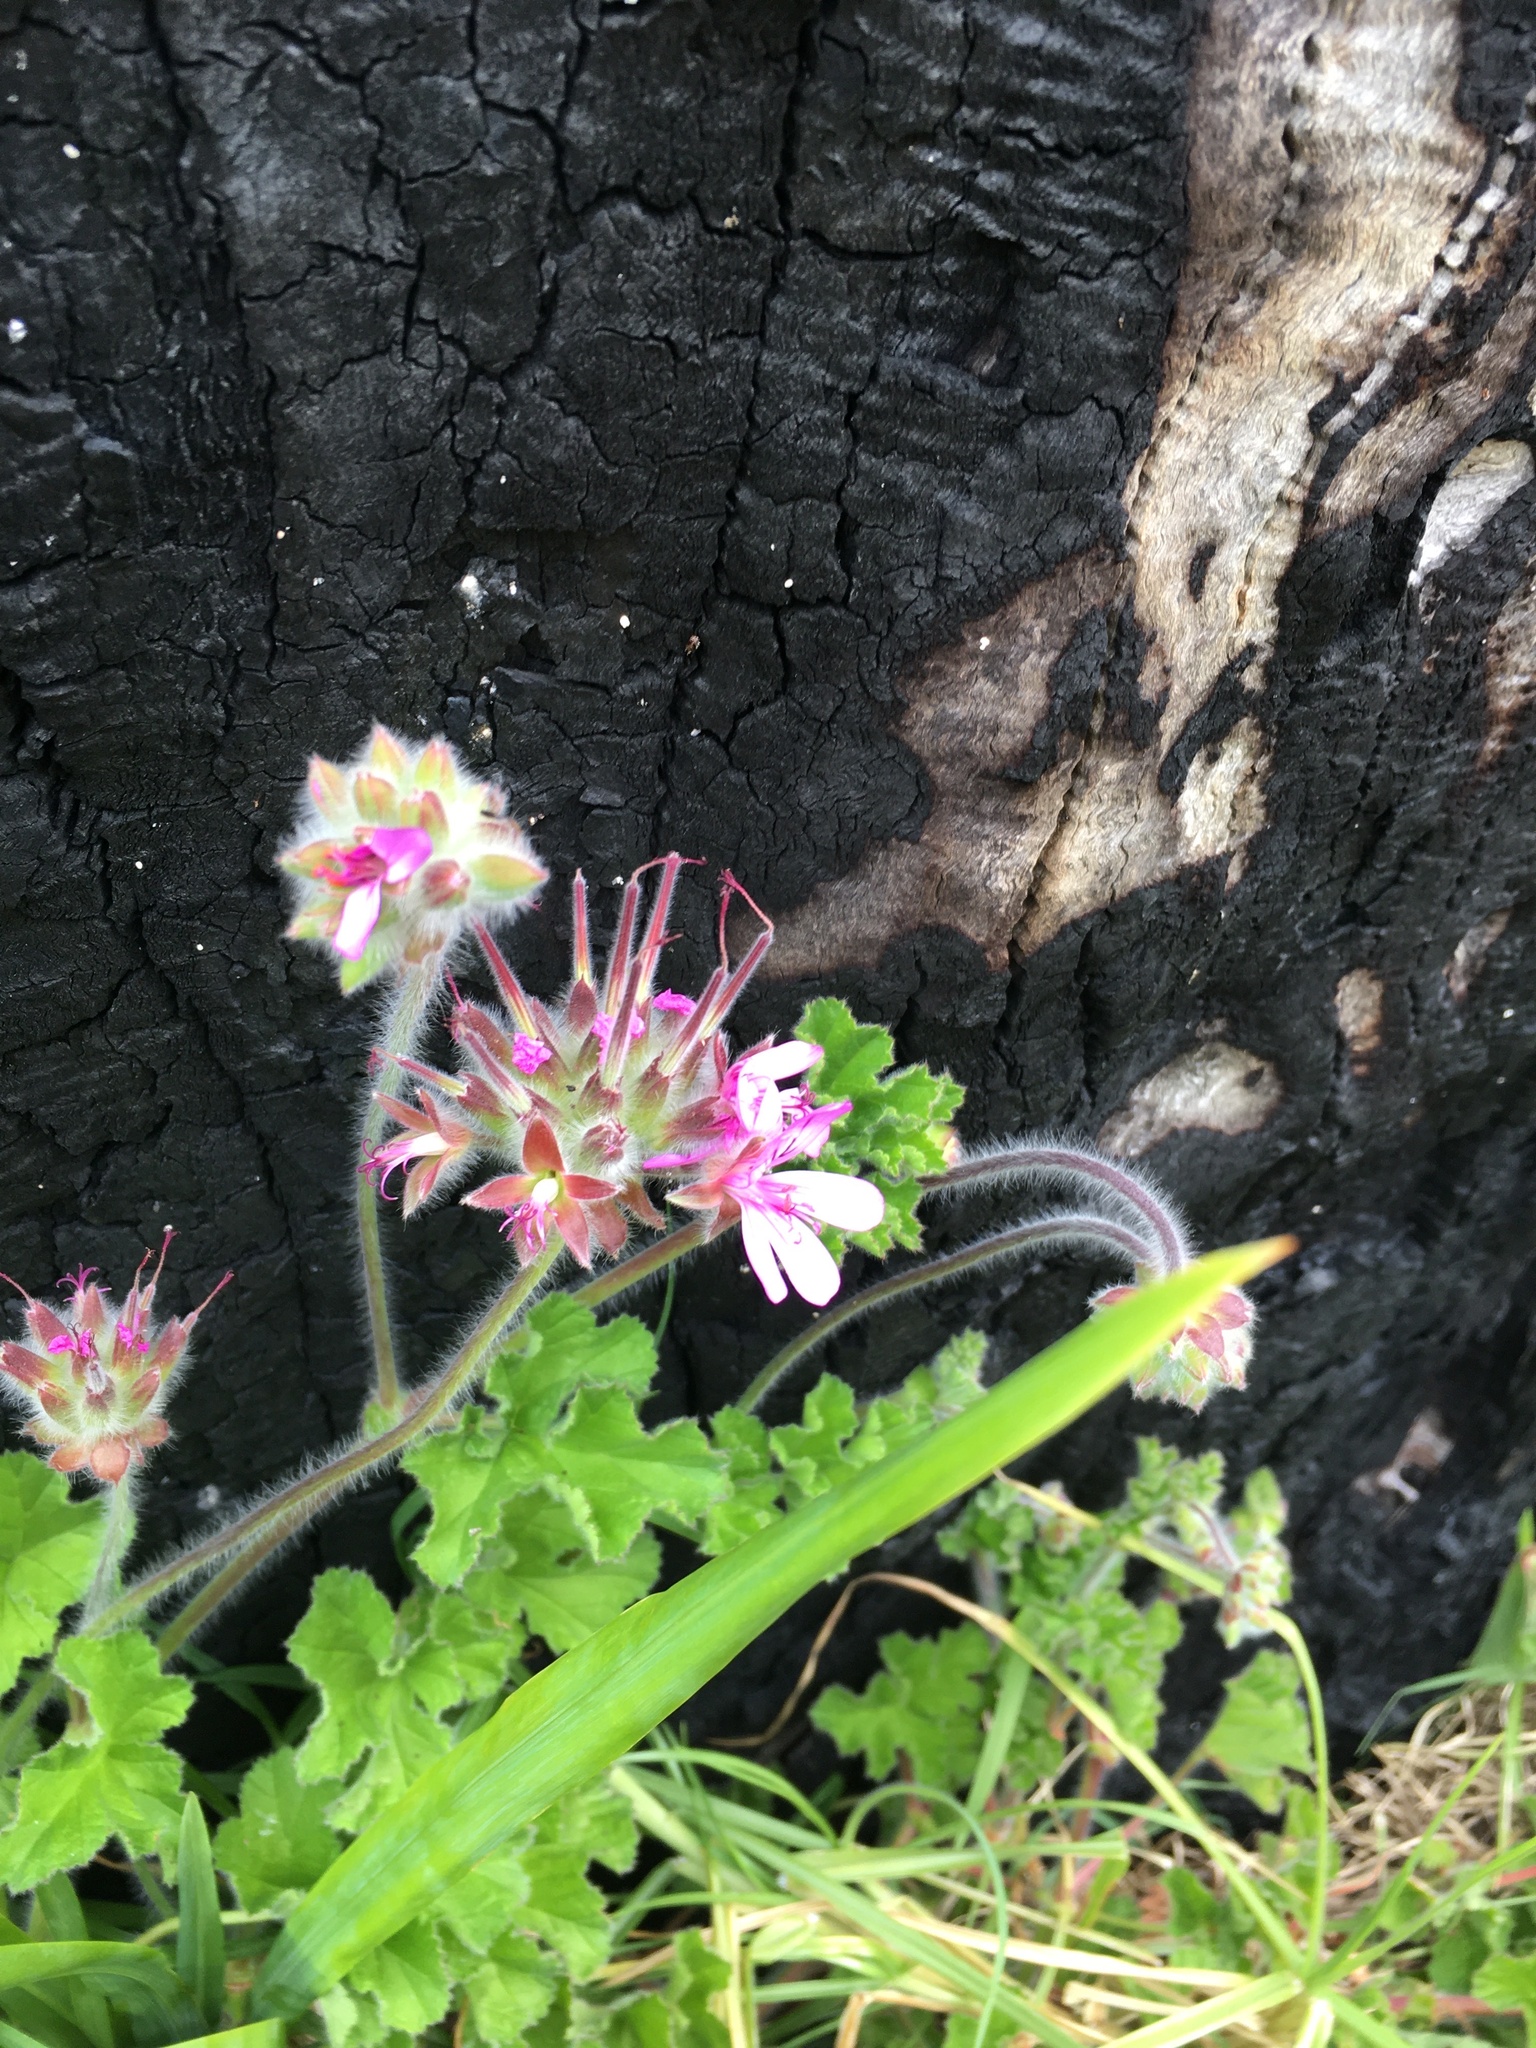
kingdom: Plantae
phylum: Tracheophyta
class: Magnoliopsida
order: Geraniales
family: Geraniaceae
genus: Pelargonium
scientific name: Pelargonium capitatum
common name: Rose scented geranium
